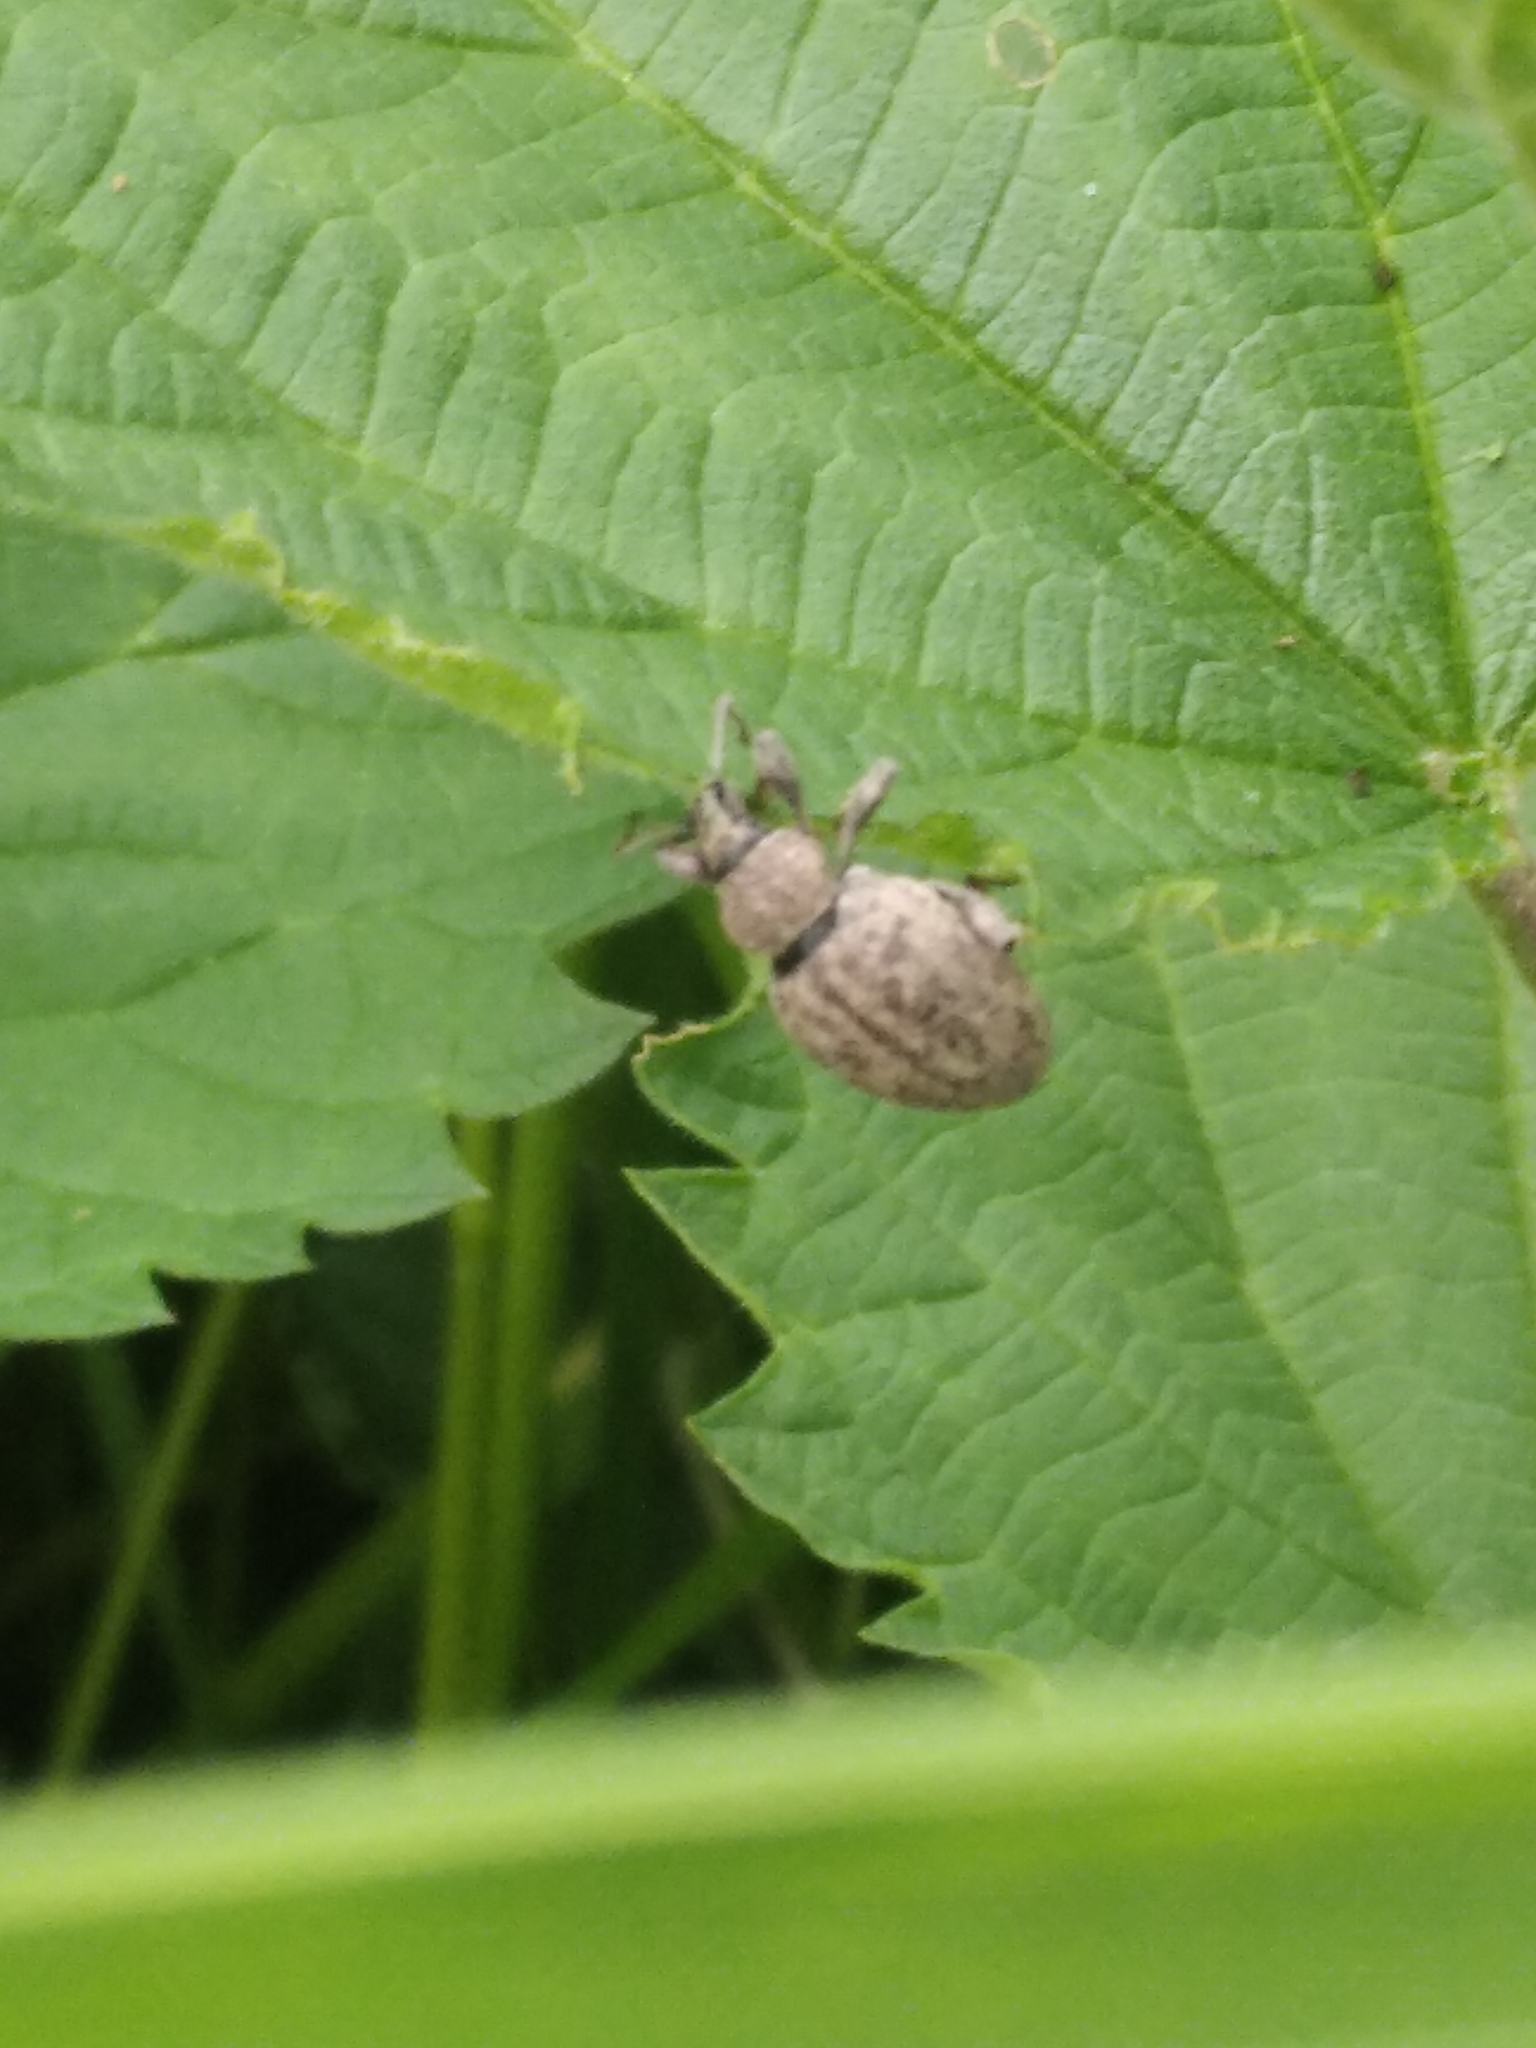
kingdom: Animalia
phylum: Arthropoda
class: Insecta
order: Coleoptera
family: Curculionidae
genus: Otiorhynchus
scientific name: Otiorhynchus ligustici
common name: Weevil
